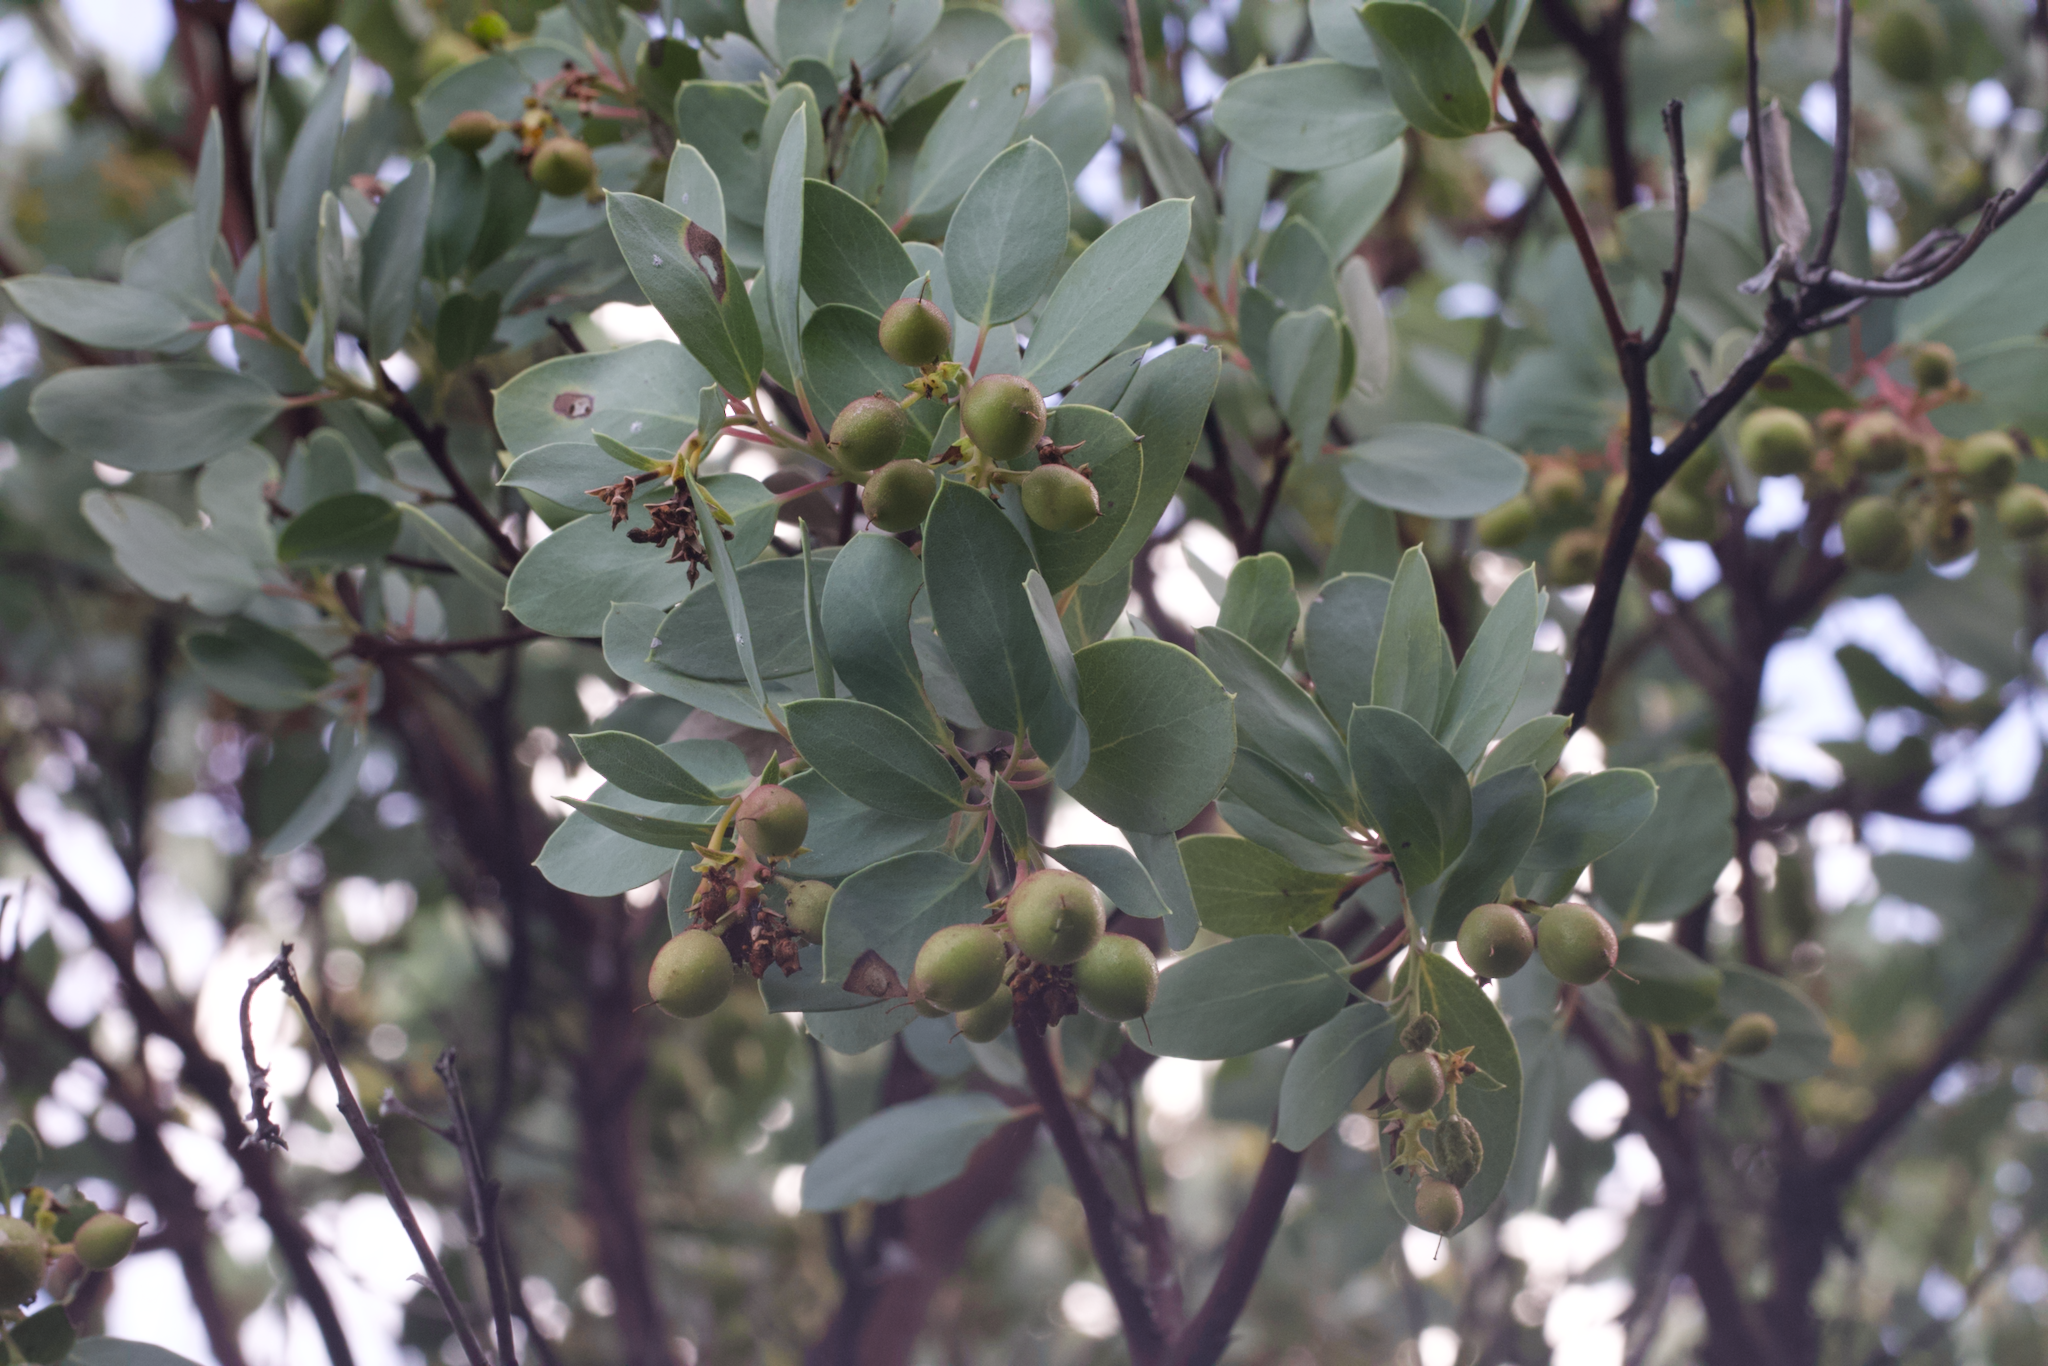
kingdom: Plantae
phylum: Tracheophyta
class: Magnoliopsida
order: Ericales
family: Ericaceae
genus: Arctostaphylos
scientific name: Arctostaphylos glauca
